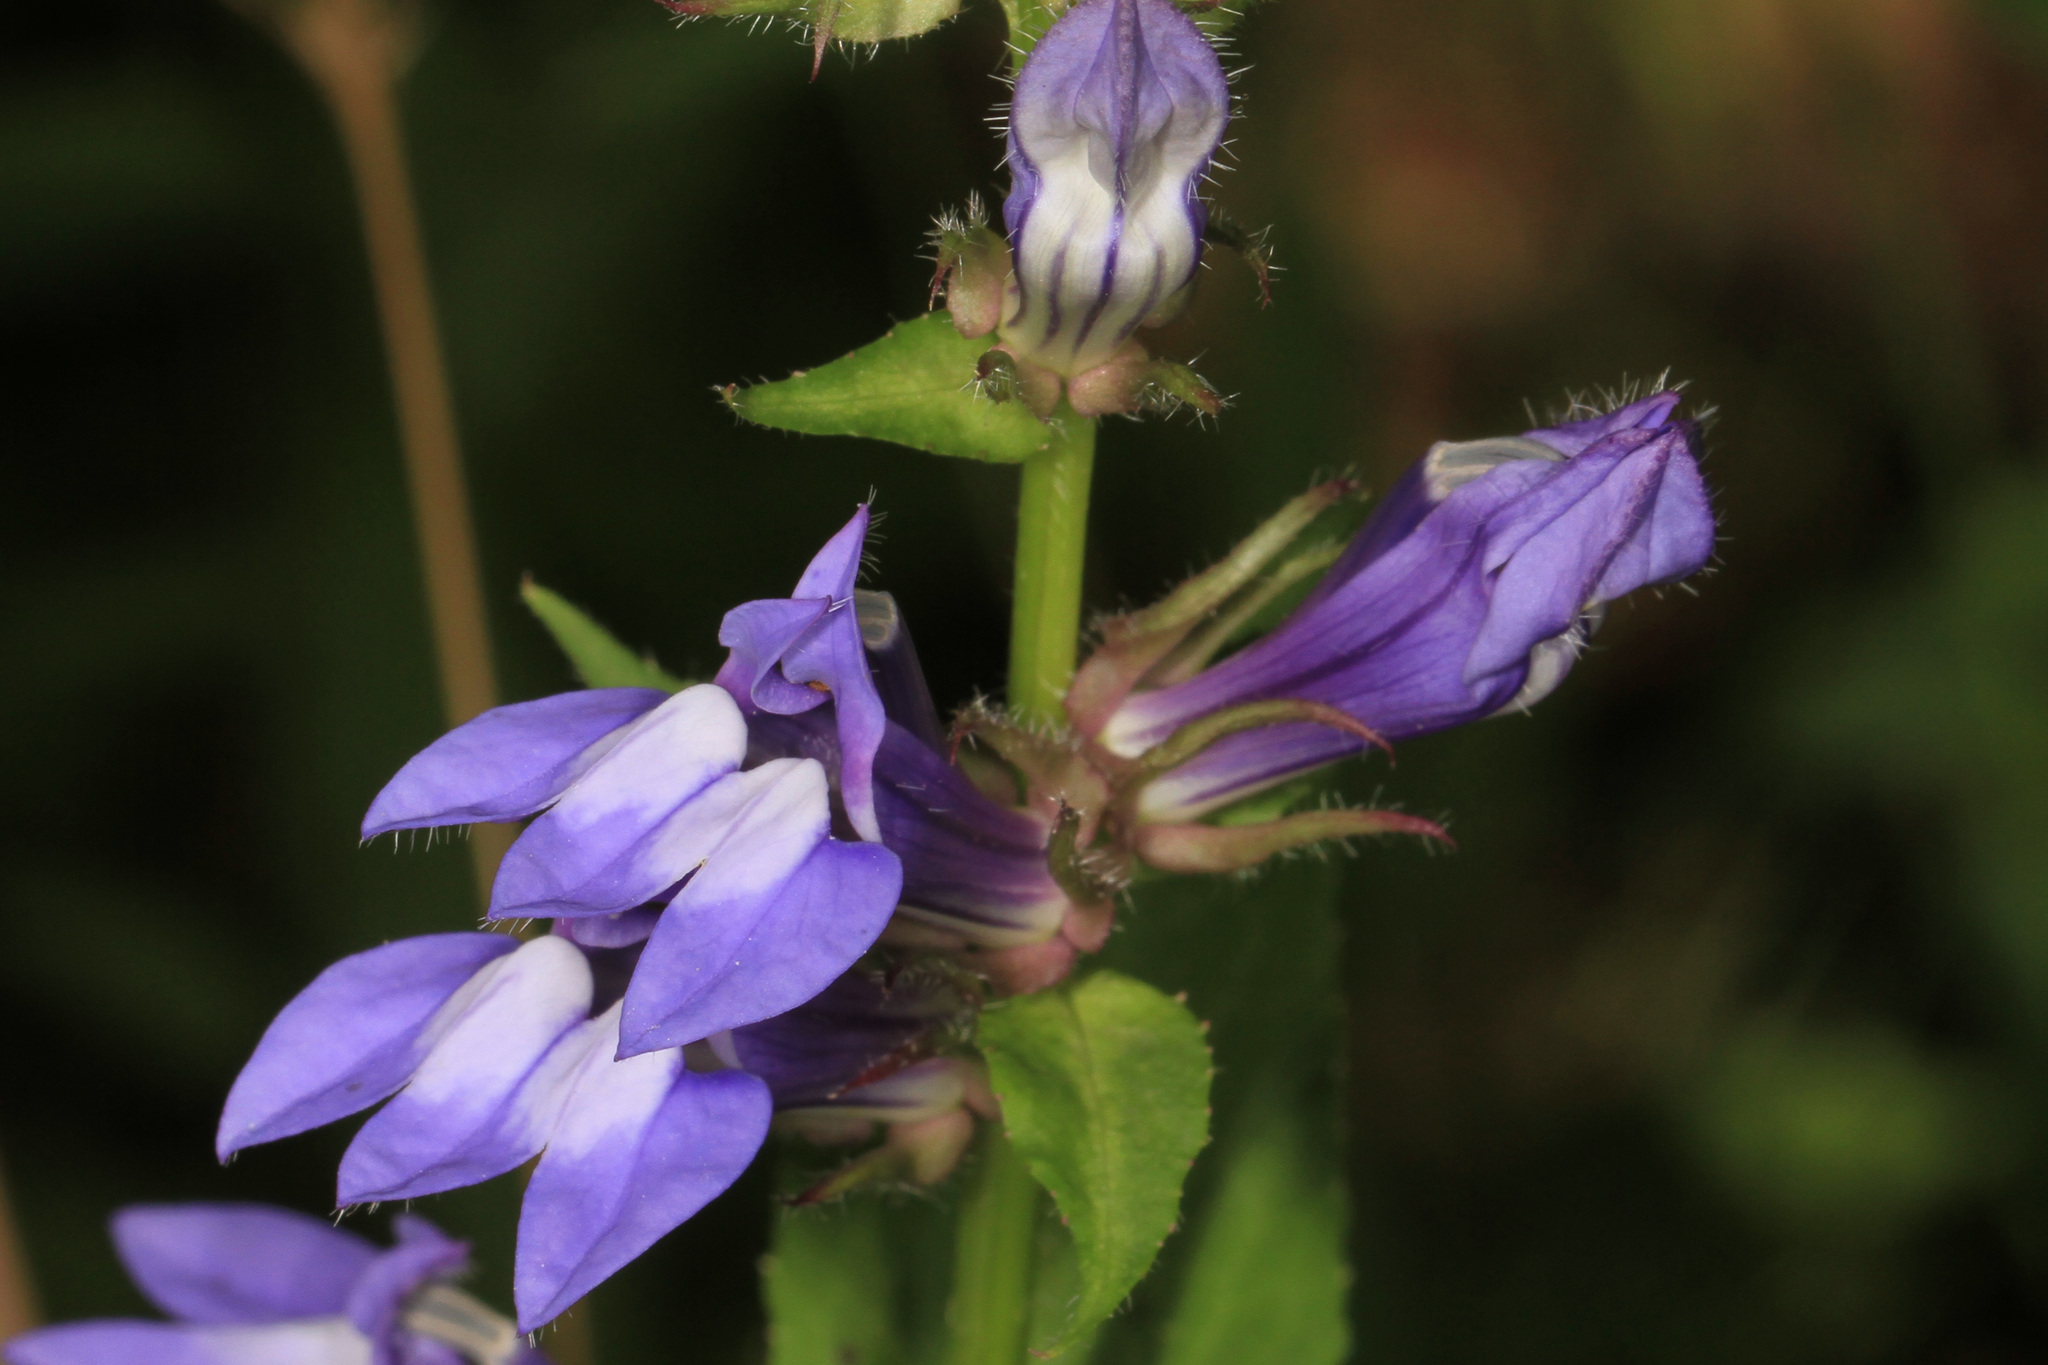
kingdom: Plantae
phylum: Tracheophyta
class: Magnoliopsida
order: Asterales
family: Campanulaceae
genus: Lobelia
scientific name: Lobelia siphilitica
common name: Great lobelia
